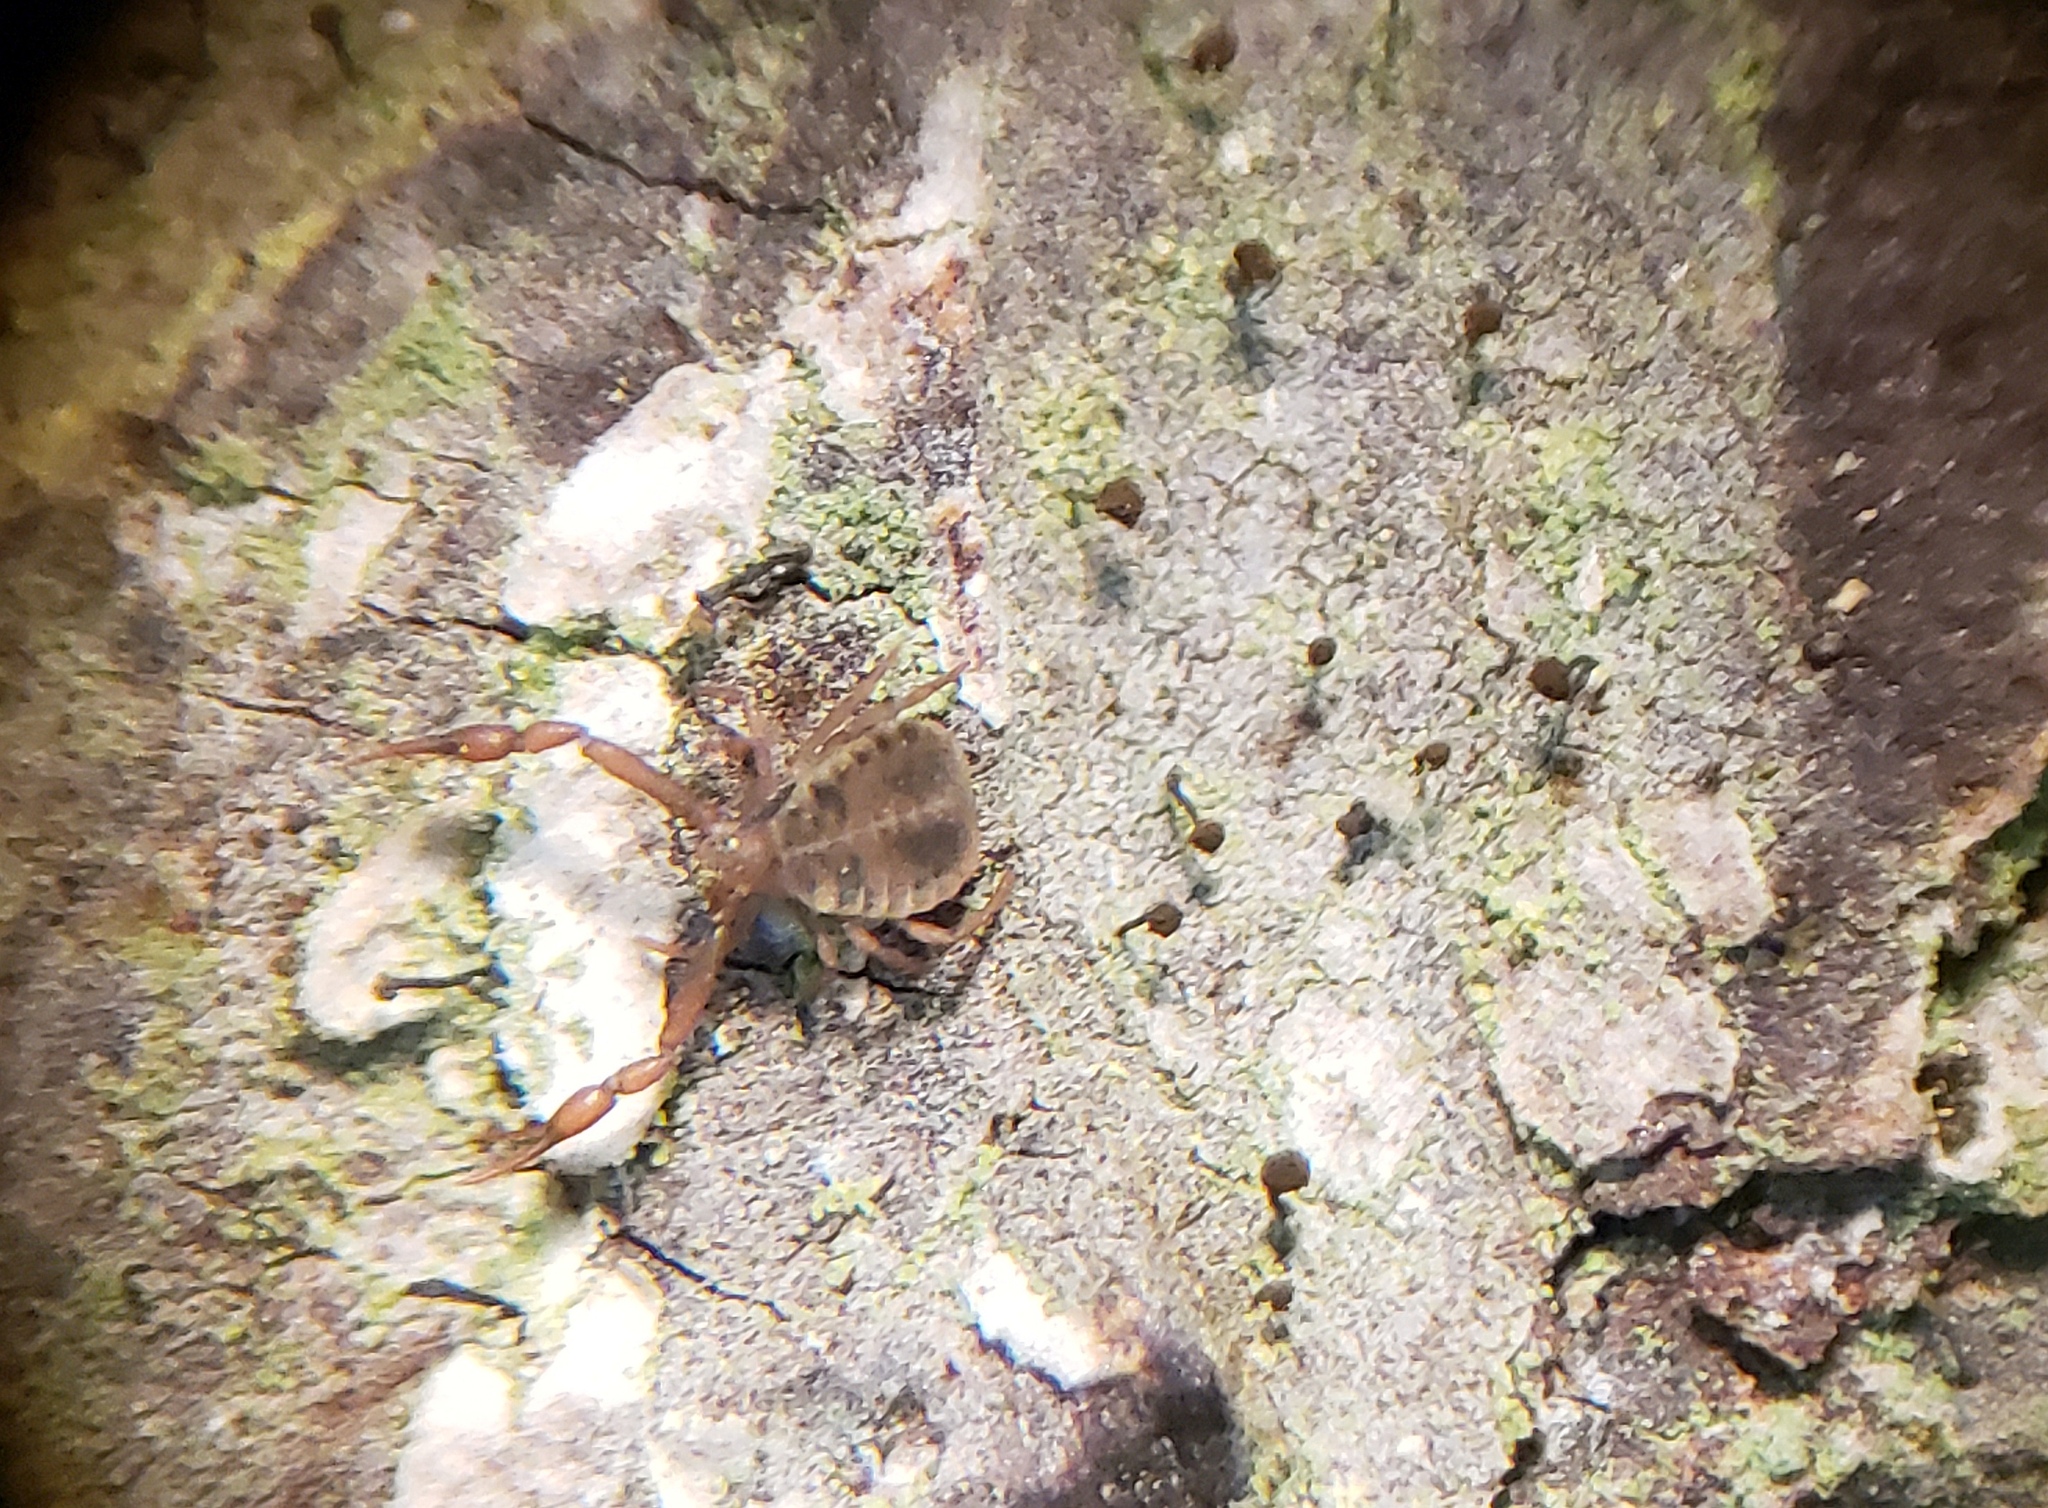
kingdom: Animalia
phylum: Arthropoda
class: Arachnida
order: Pseudoscorpiones
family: Pseudogarypidae
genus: Pseudogarypus
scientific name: Pseudogarypus banksi
